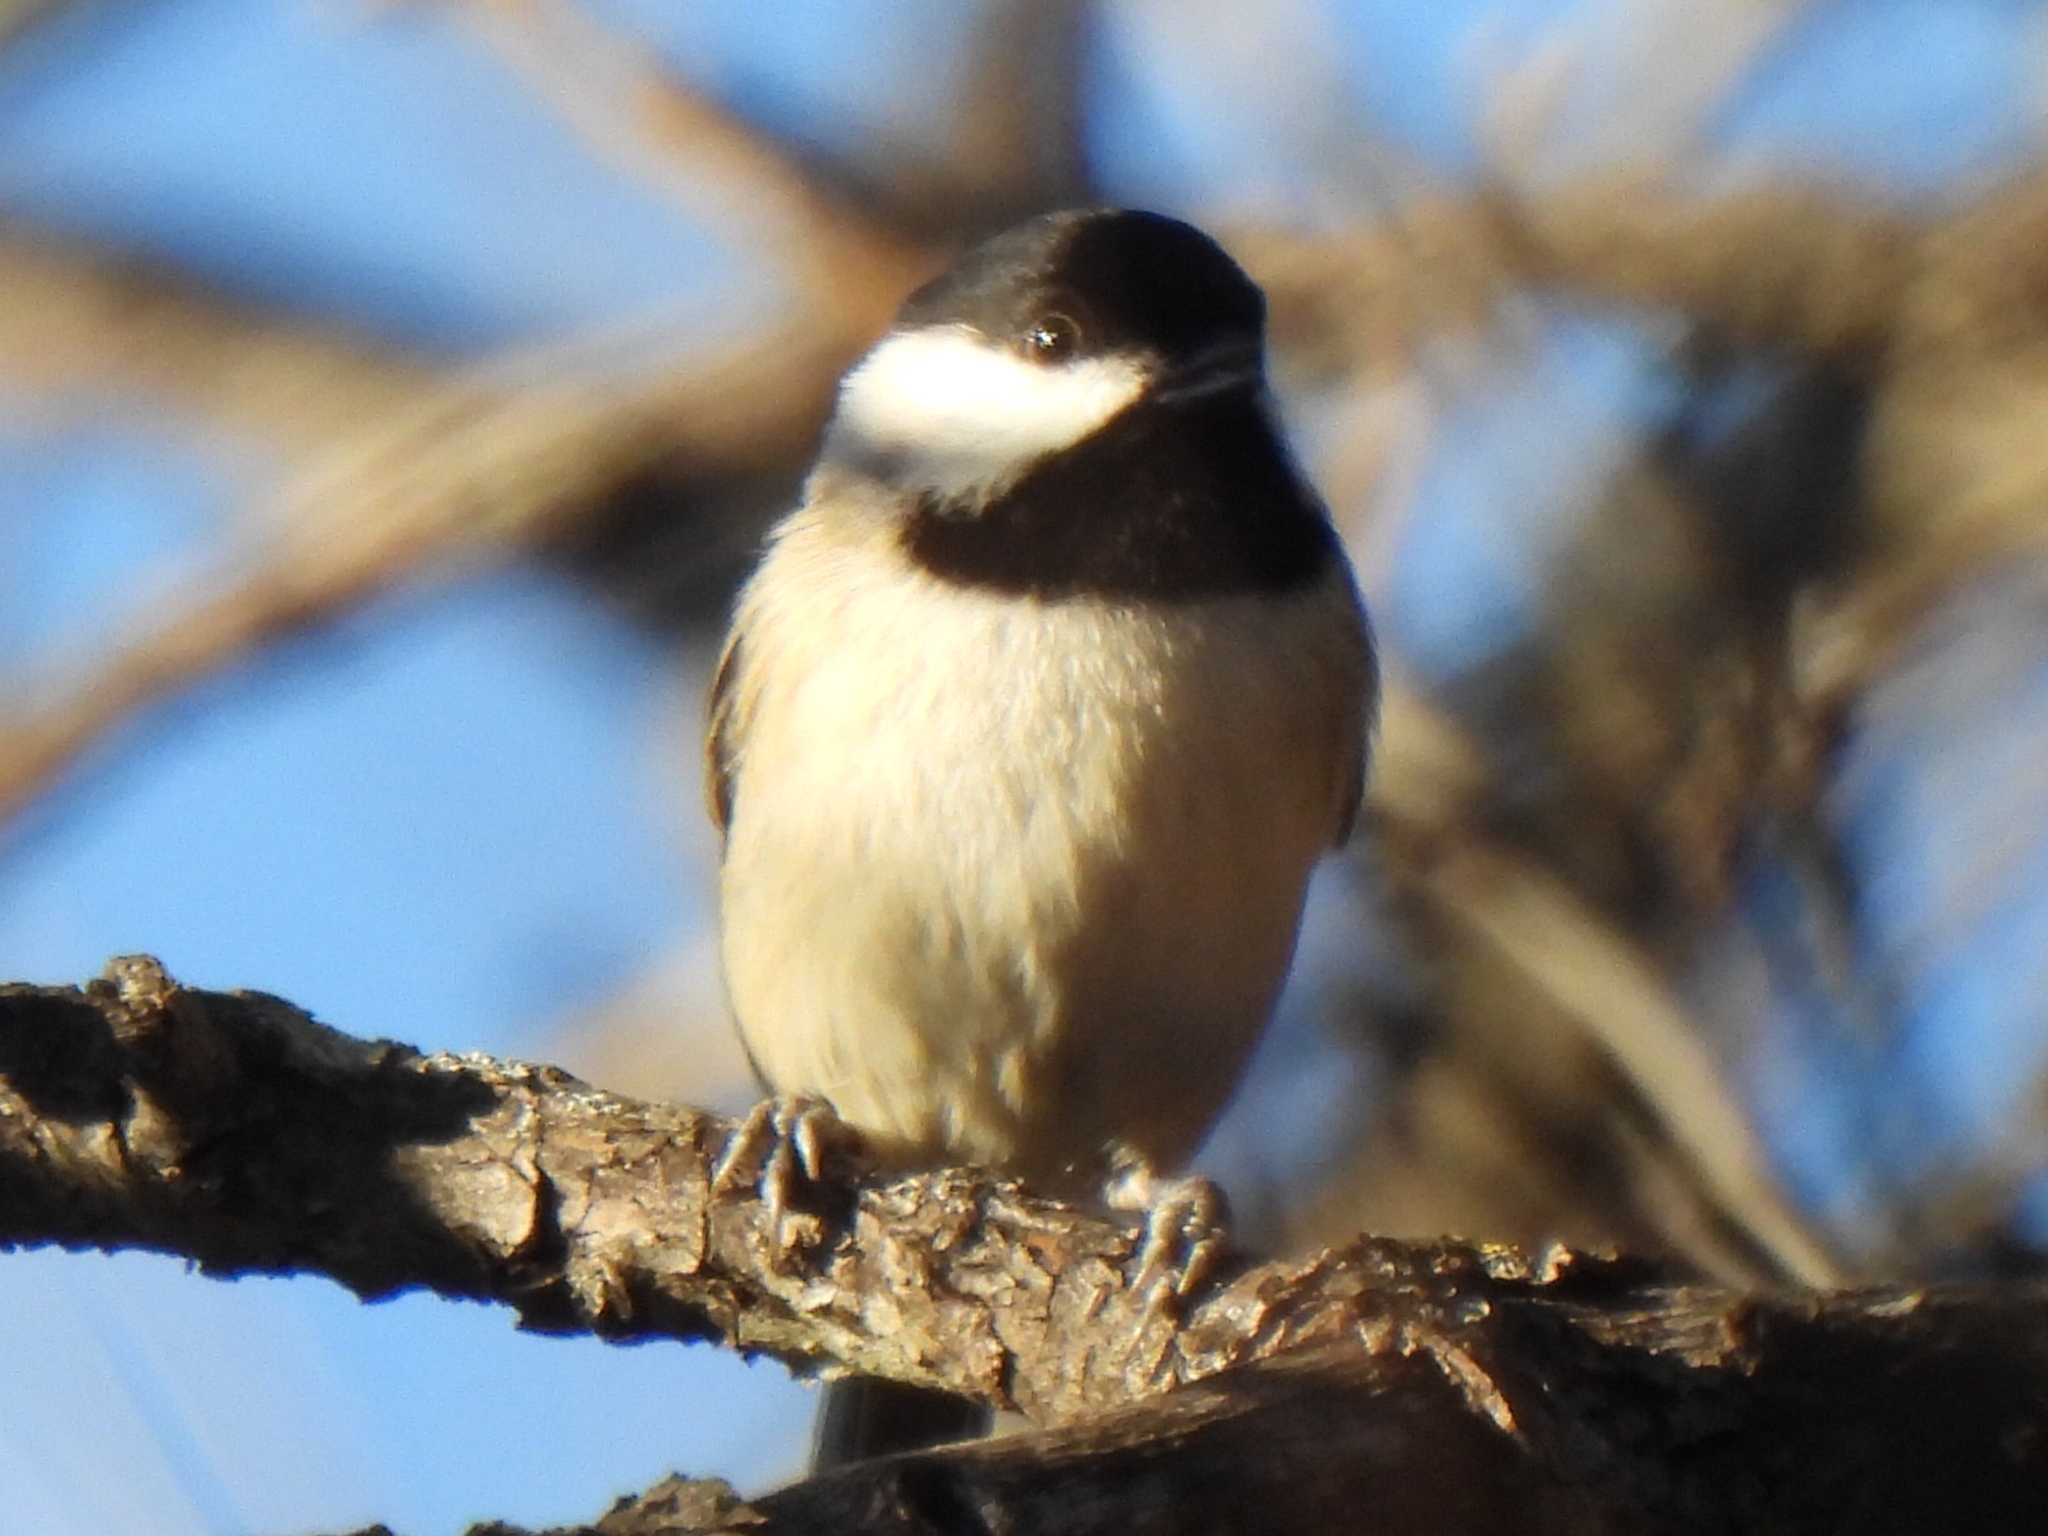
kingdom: Animalia
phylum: Chordata
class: Aves
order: Passeriformes
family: Paridae
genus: Poecile
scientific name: Poecile carolinensis
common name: Carolina chickadee
